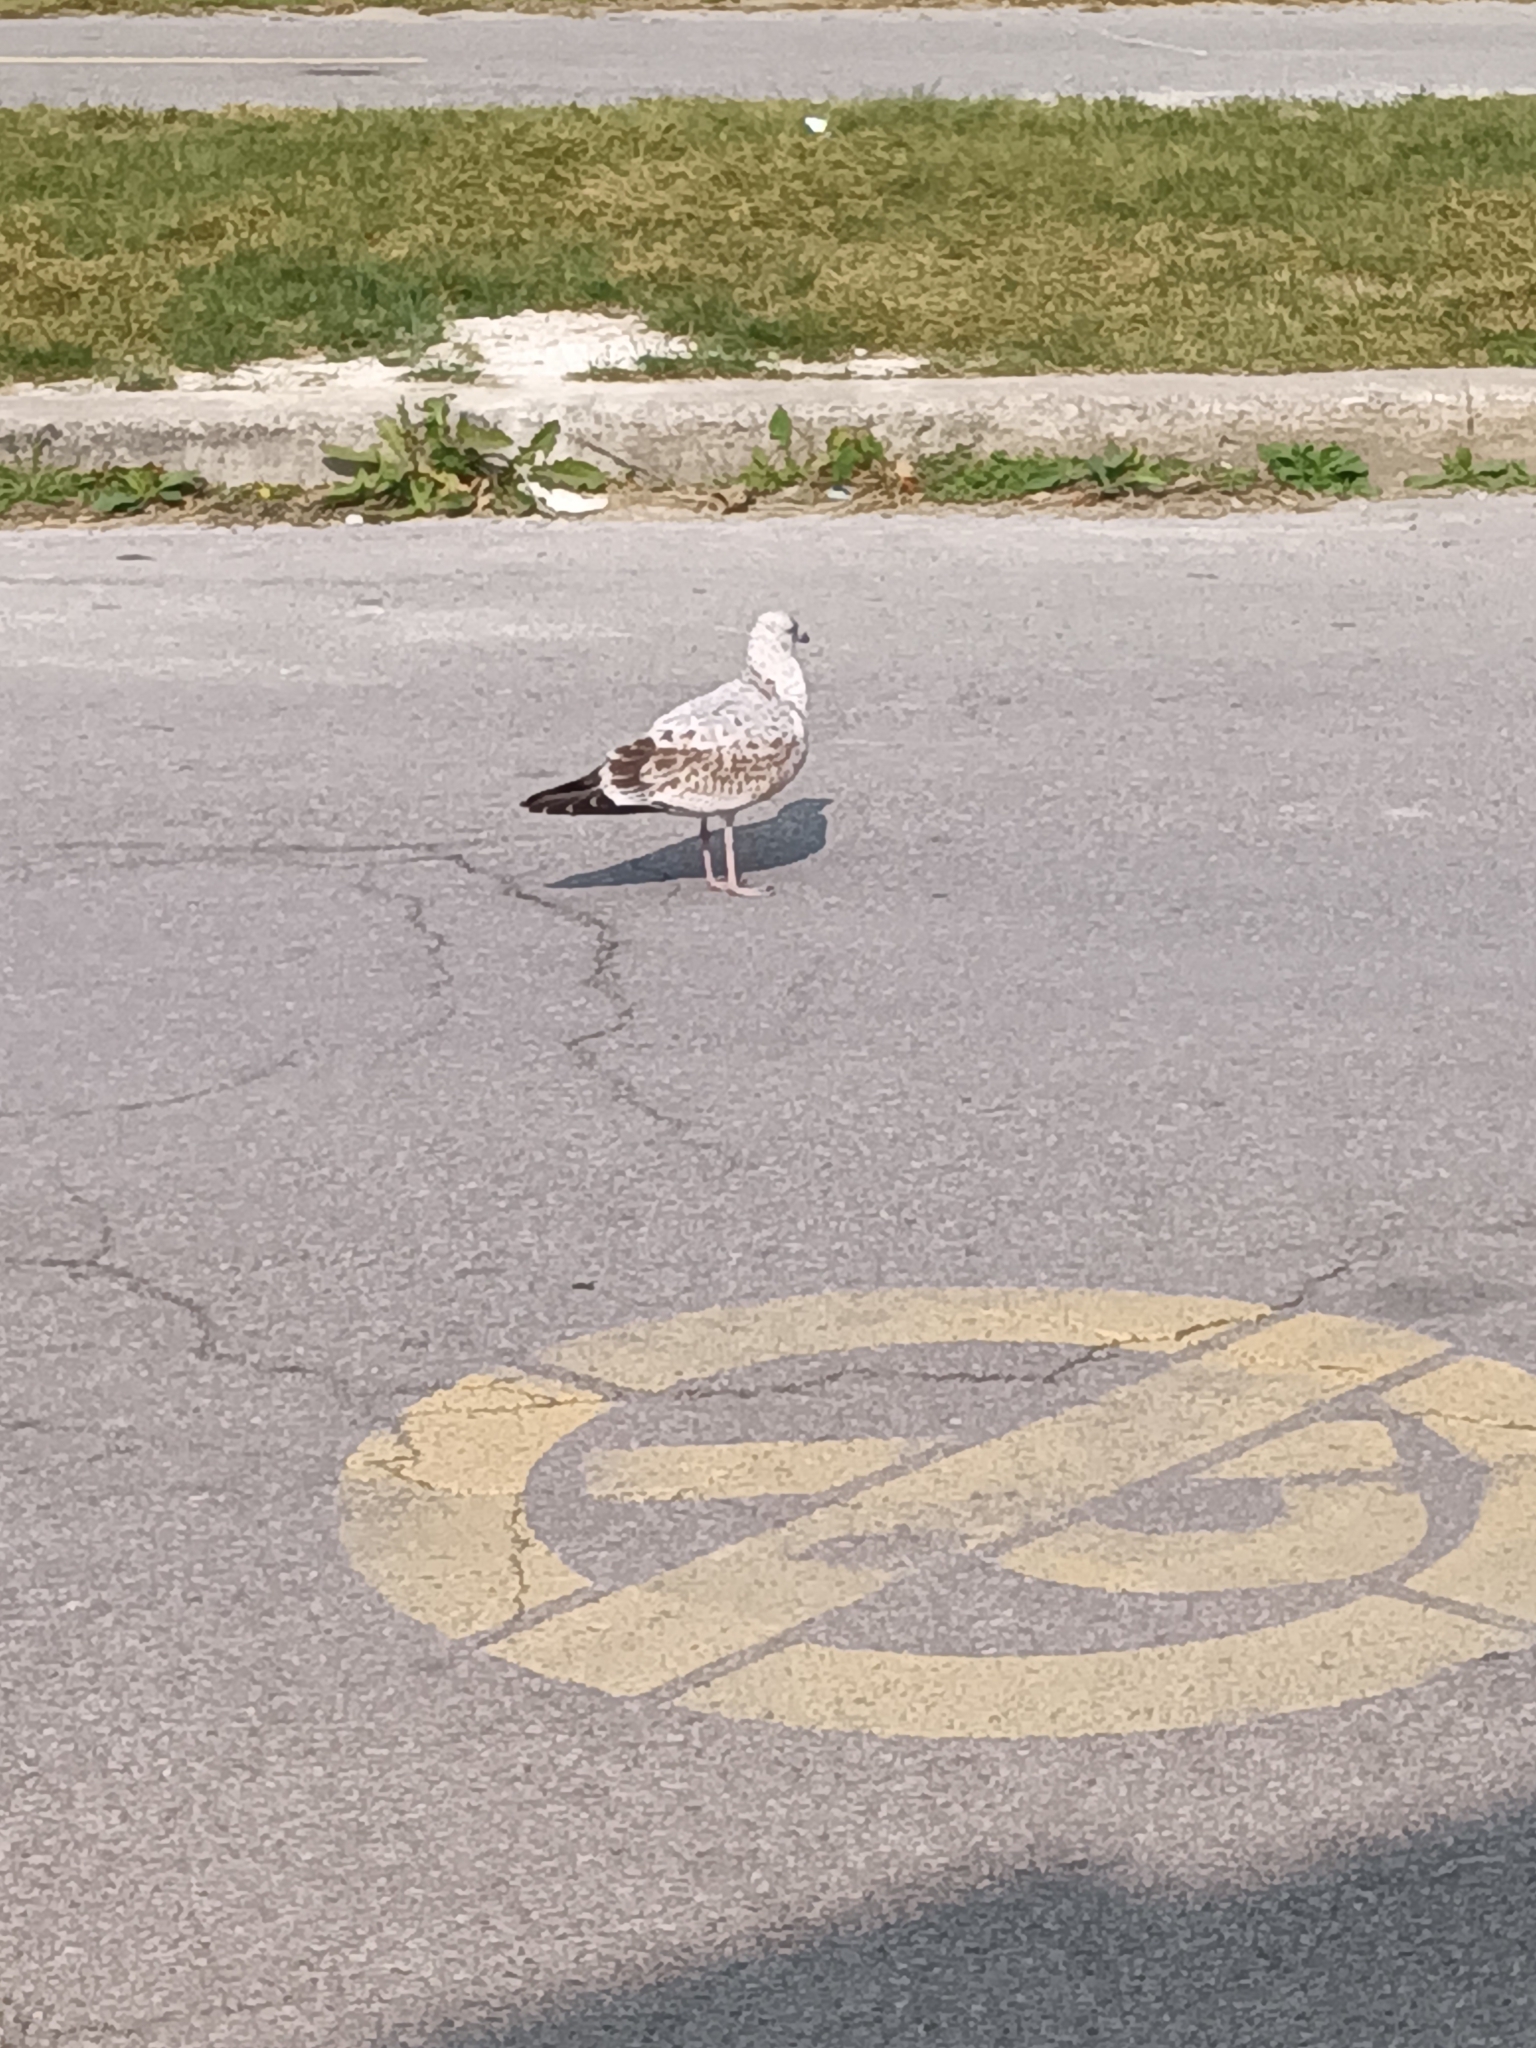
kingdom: Animalia
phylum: Chordata
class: Aves
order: Charadriiformes
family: Laridae
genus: Larus
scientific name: Larus delawarensis
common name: Ring-billed gull
